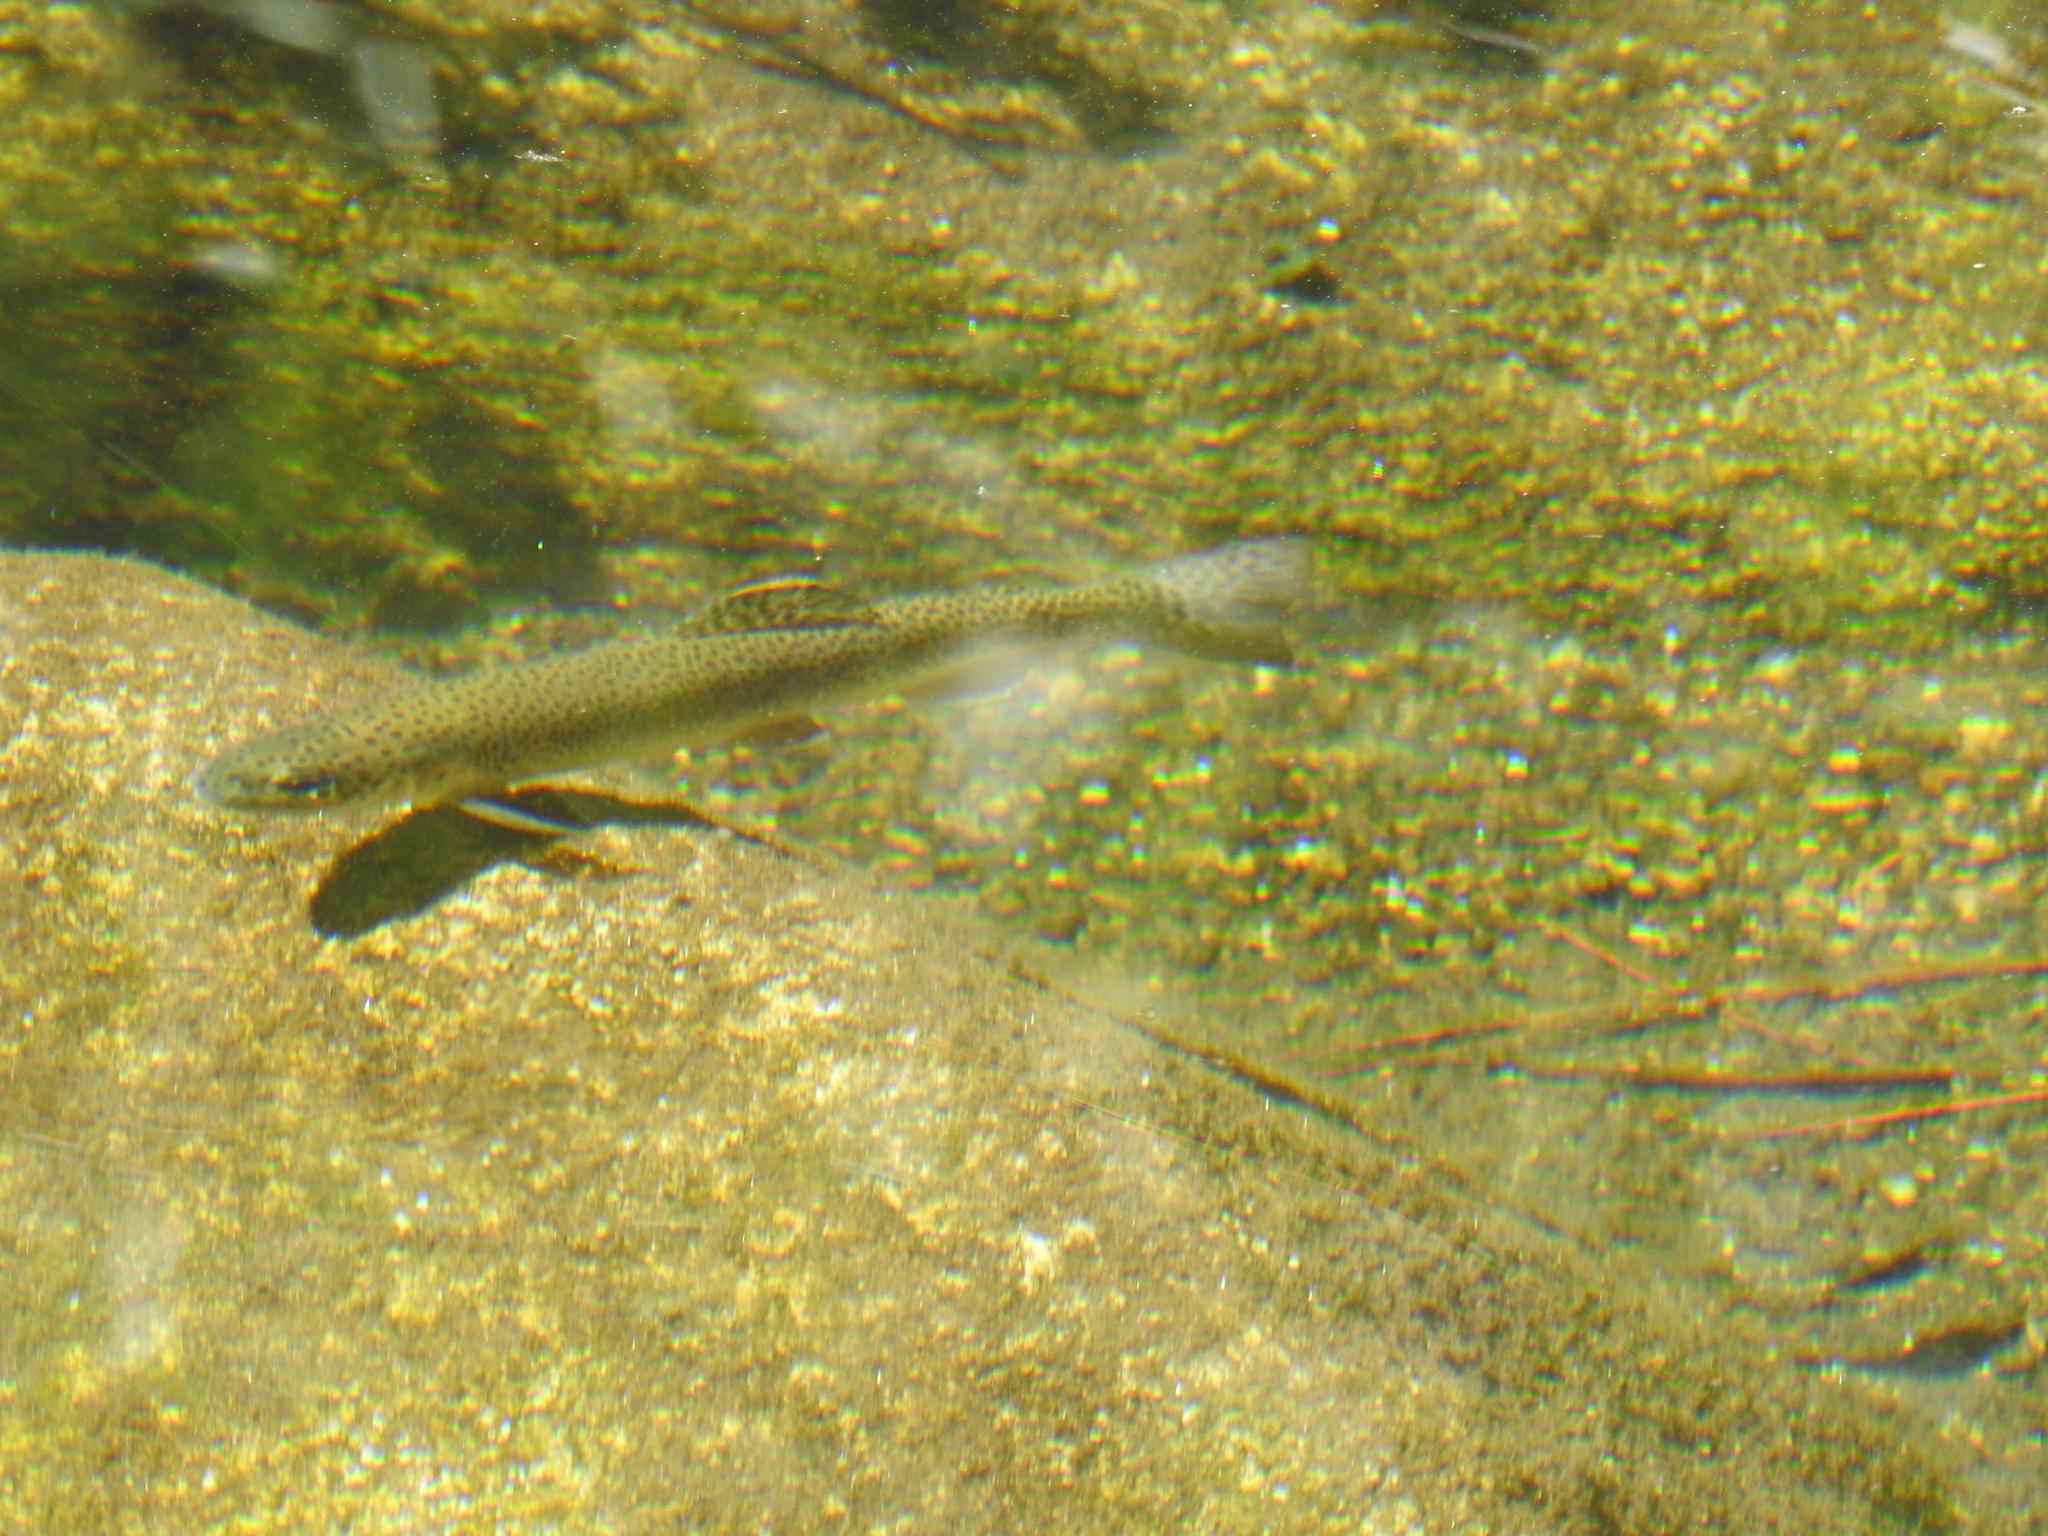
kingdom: Animalia
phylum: Chordata
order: Salmoniformes
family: Salmonidae
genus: Oncorhynchus
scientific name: Oncorhynchus
